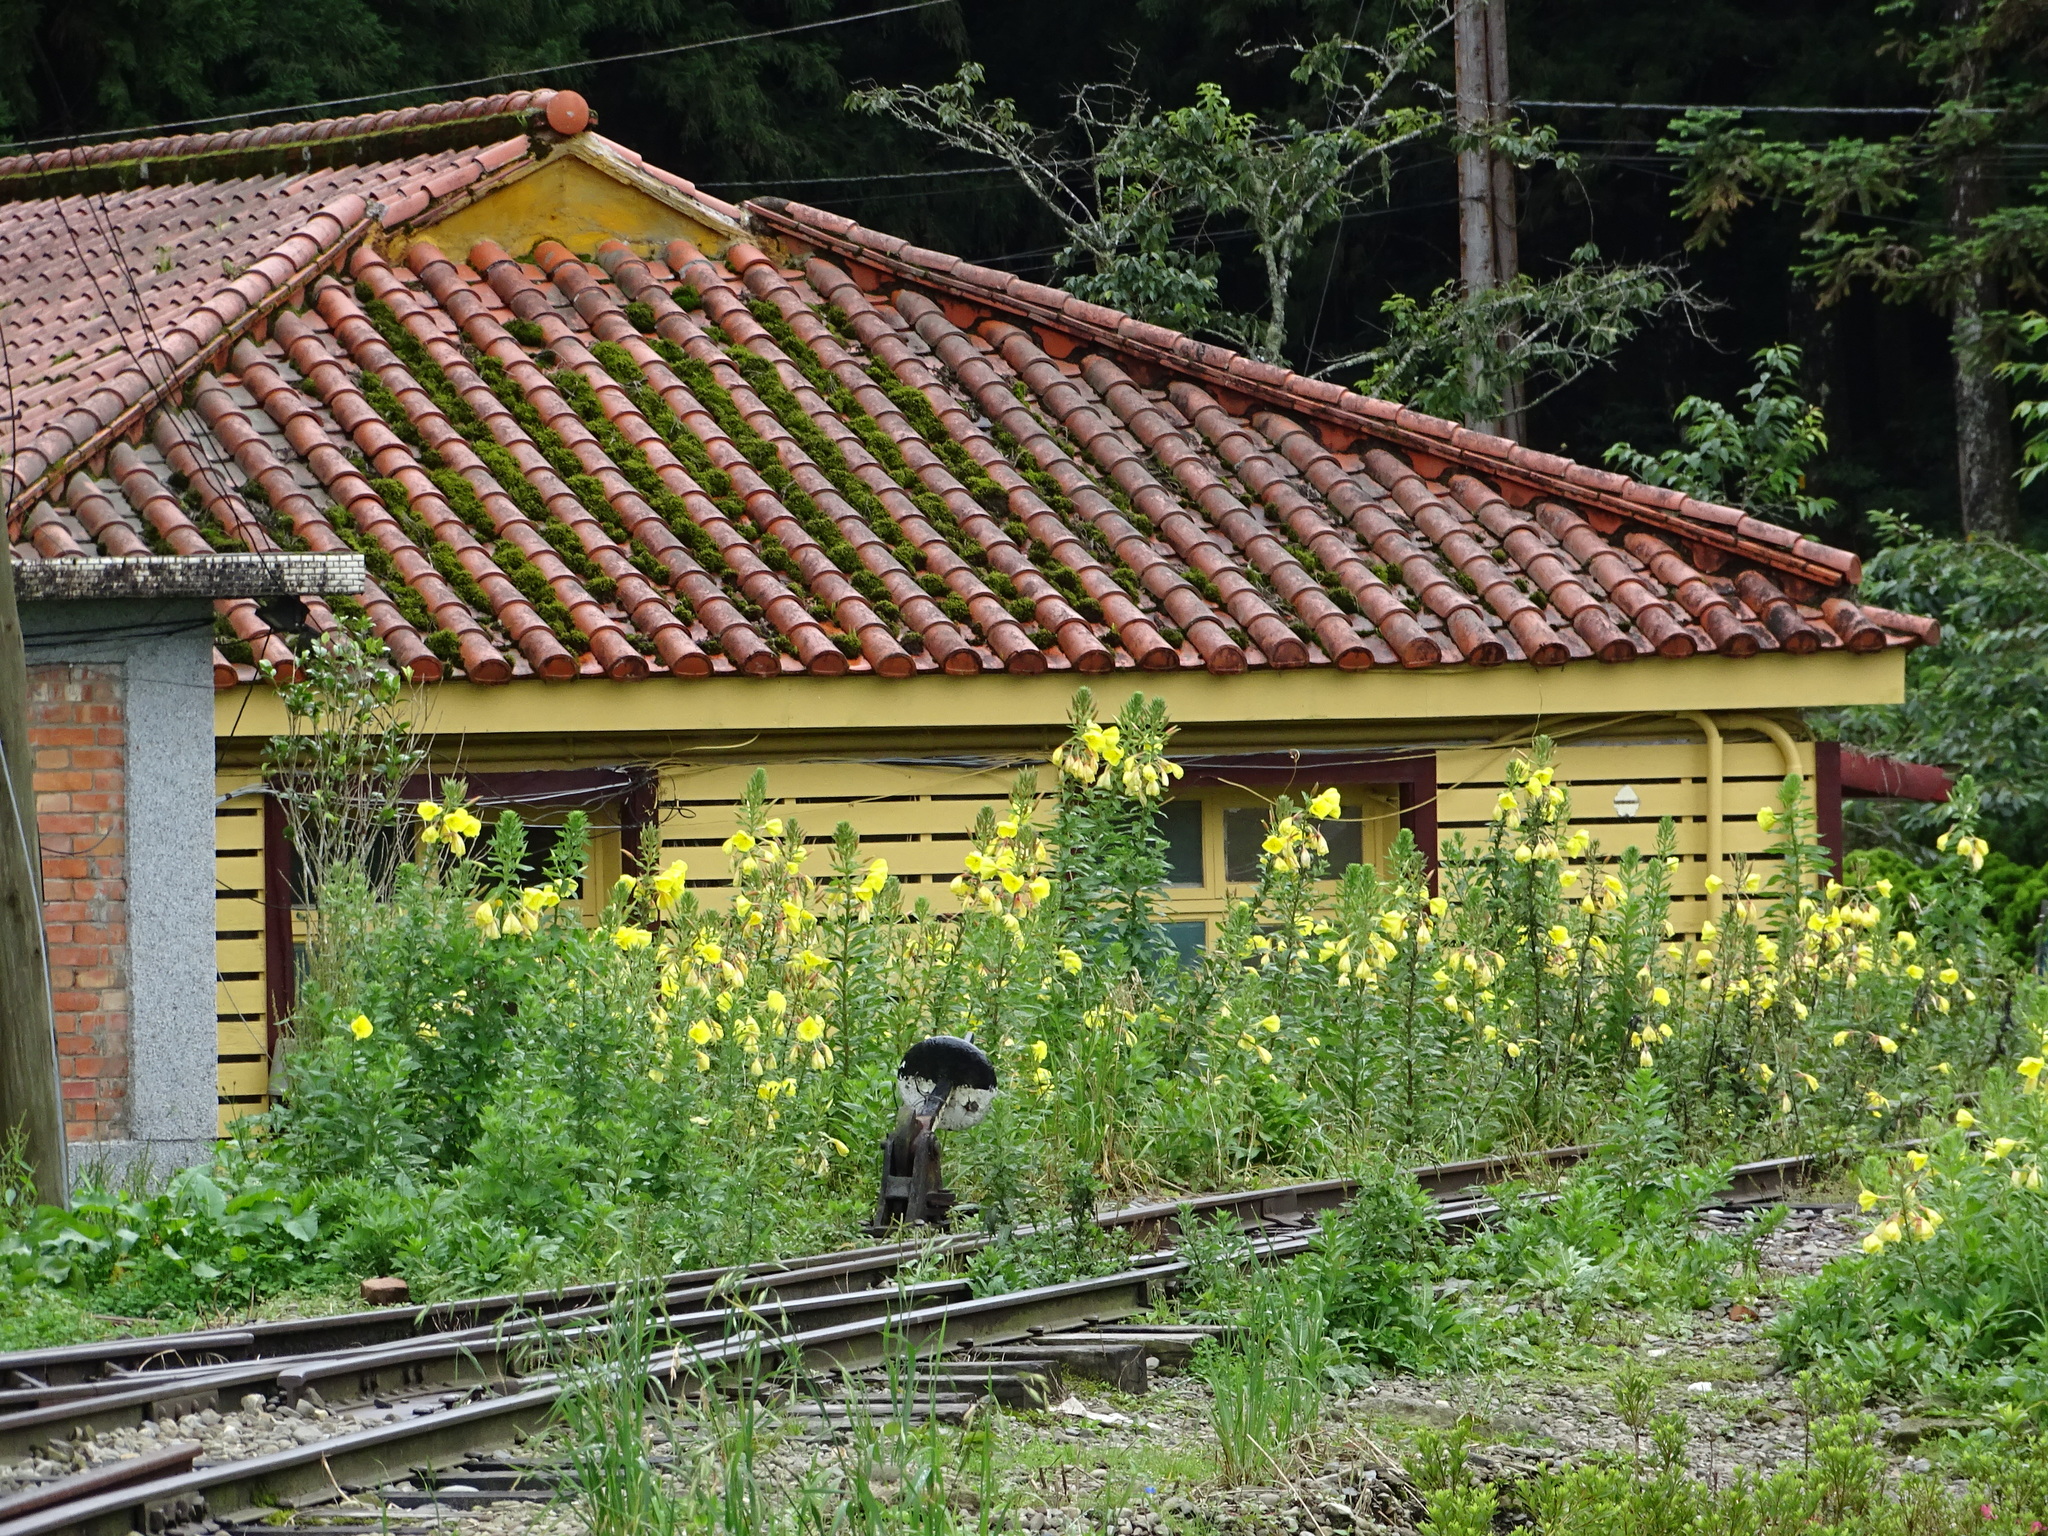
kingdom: Plantae
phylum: Tracheophyta
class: Magnoliopsida
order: Myrtales
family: Onagraceae
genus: Oenothera
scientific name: Oenothera glazioviana
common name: Large-flowered evening-primrose
